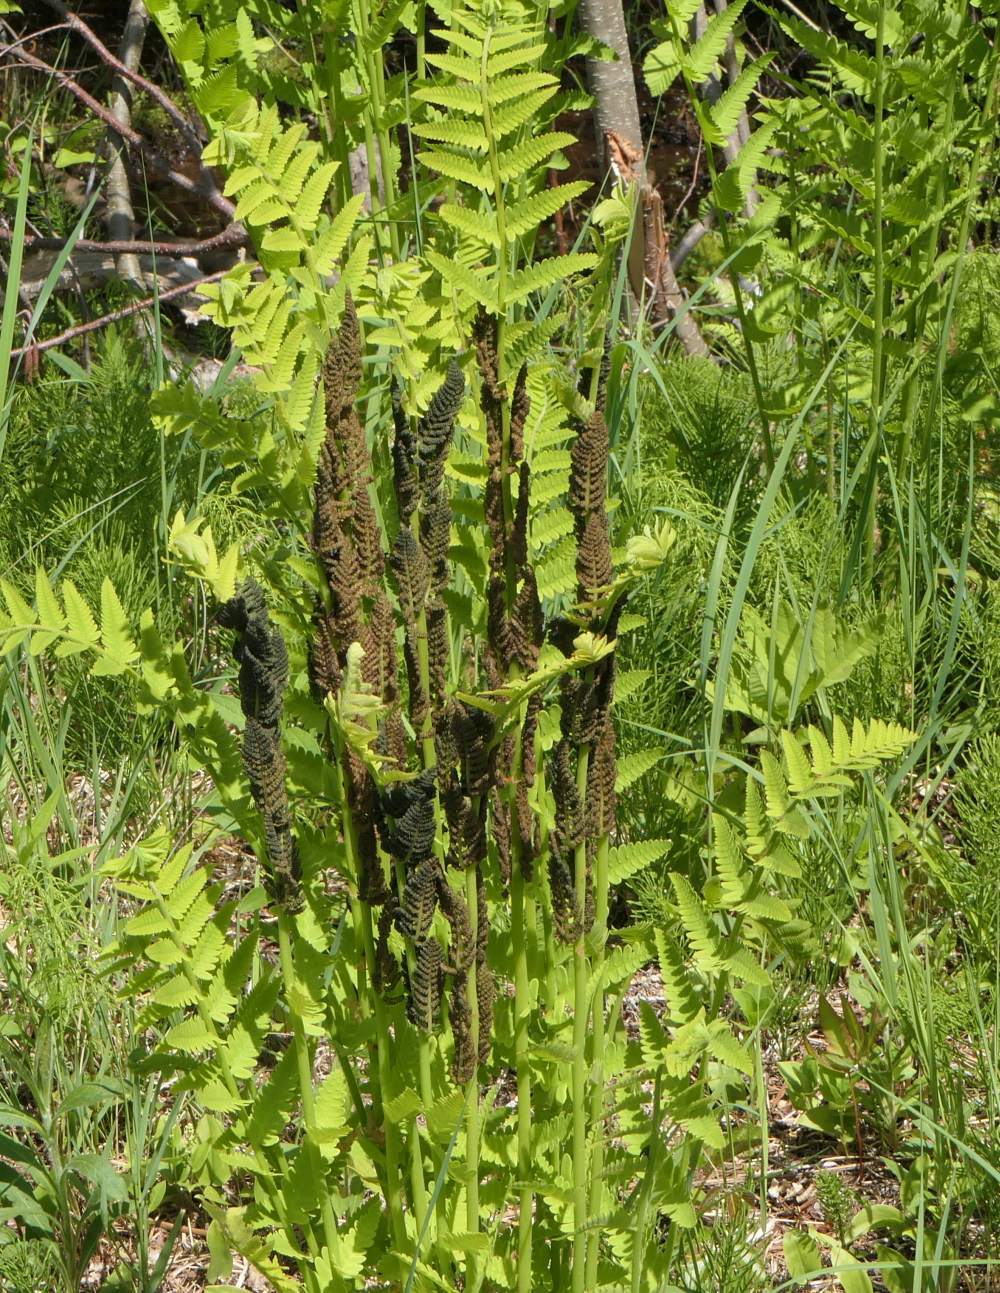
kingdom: Plantae
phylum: Tracheophyta
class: Polypodiopsida
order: Osmundales
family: Osmundaceae
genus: Claytosmunda
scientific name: Claytosmunda claytoniana
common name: Clayton's fern
